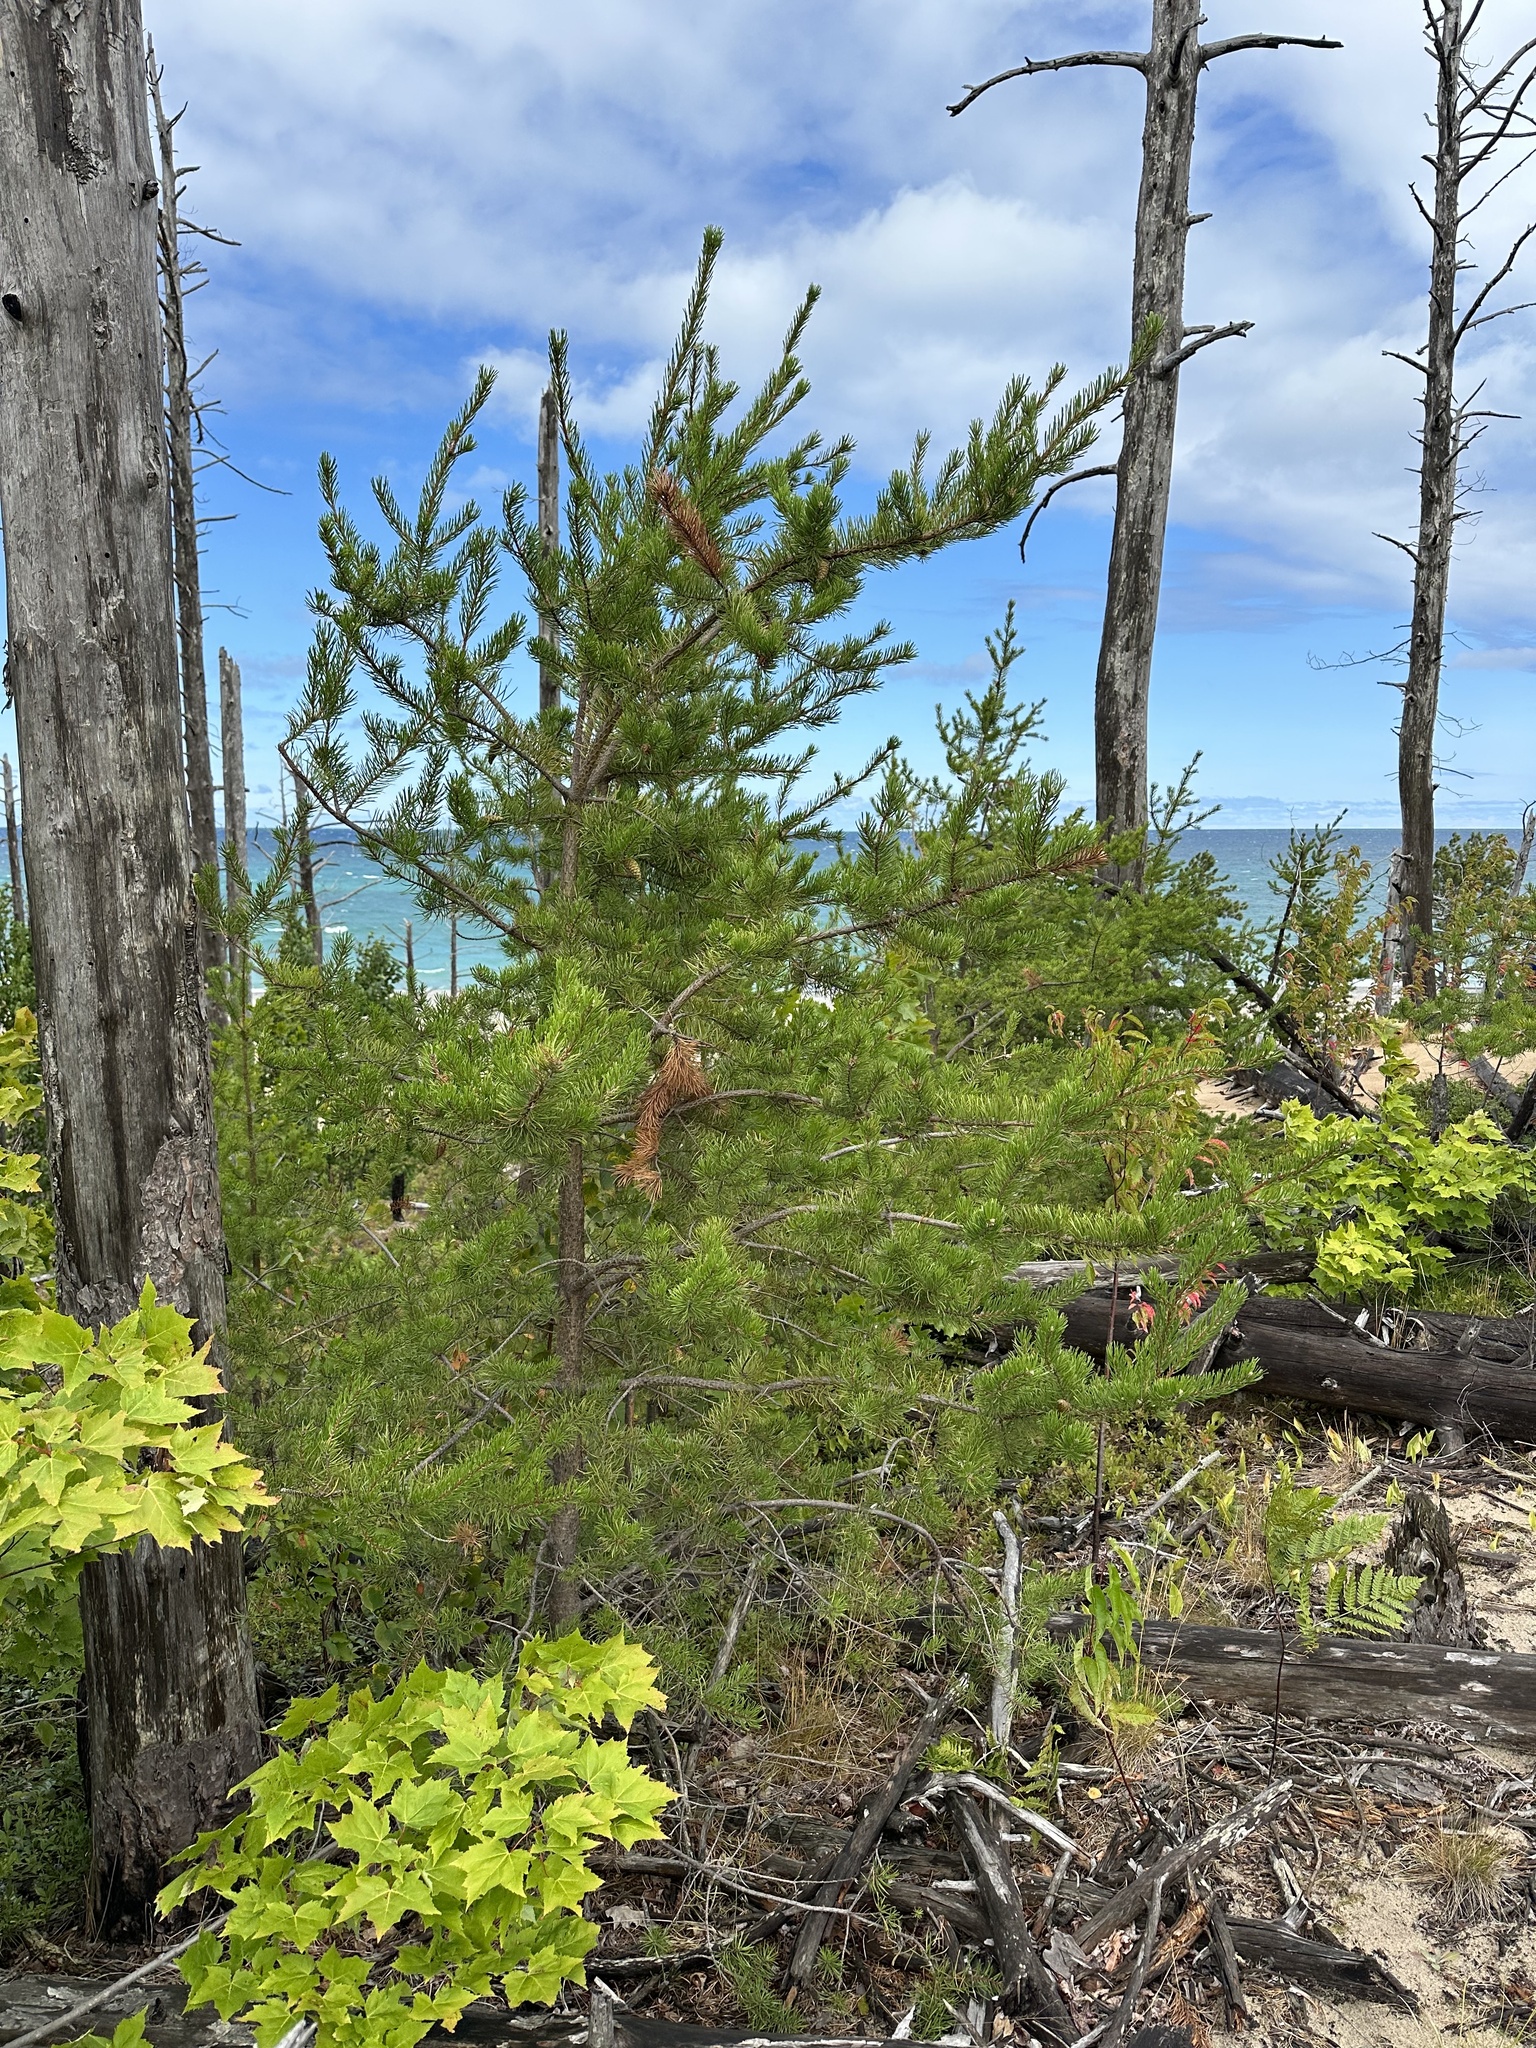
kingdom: Plantae
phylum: Tracheophyta
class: Pinopsida
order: Pinales
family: Pinaceae
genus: Pinus
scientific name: Pinus banksiana
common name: Jack pine
